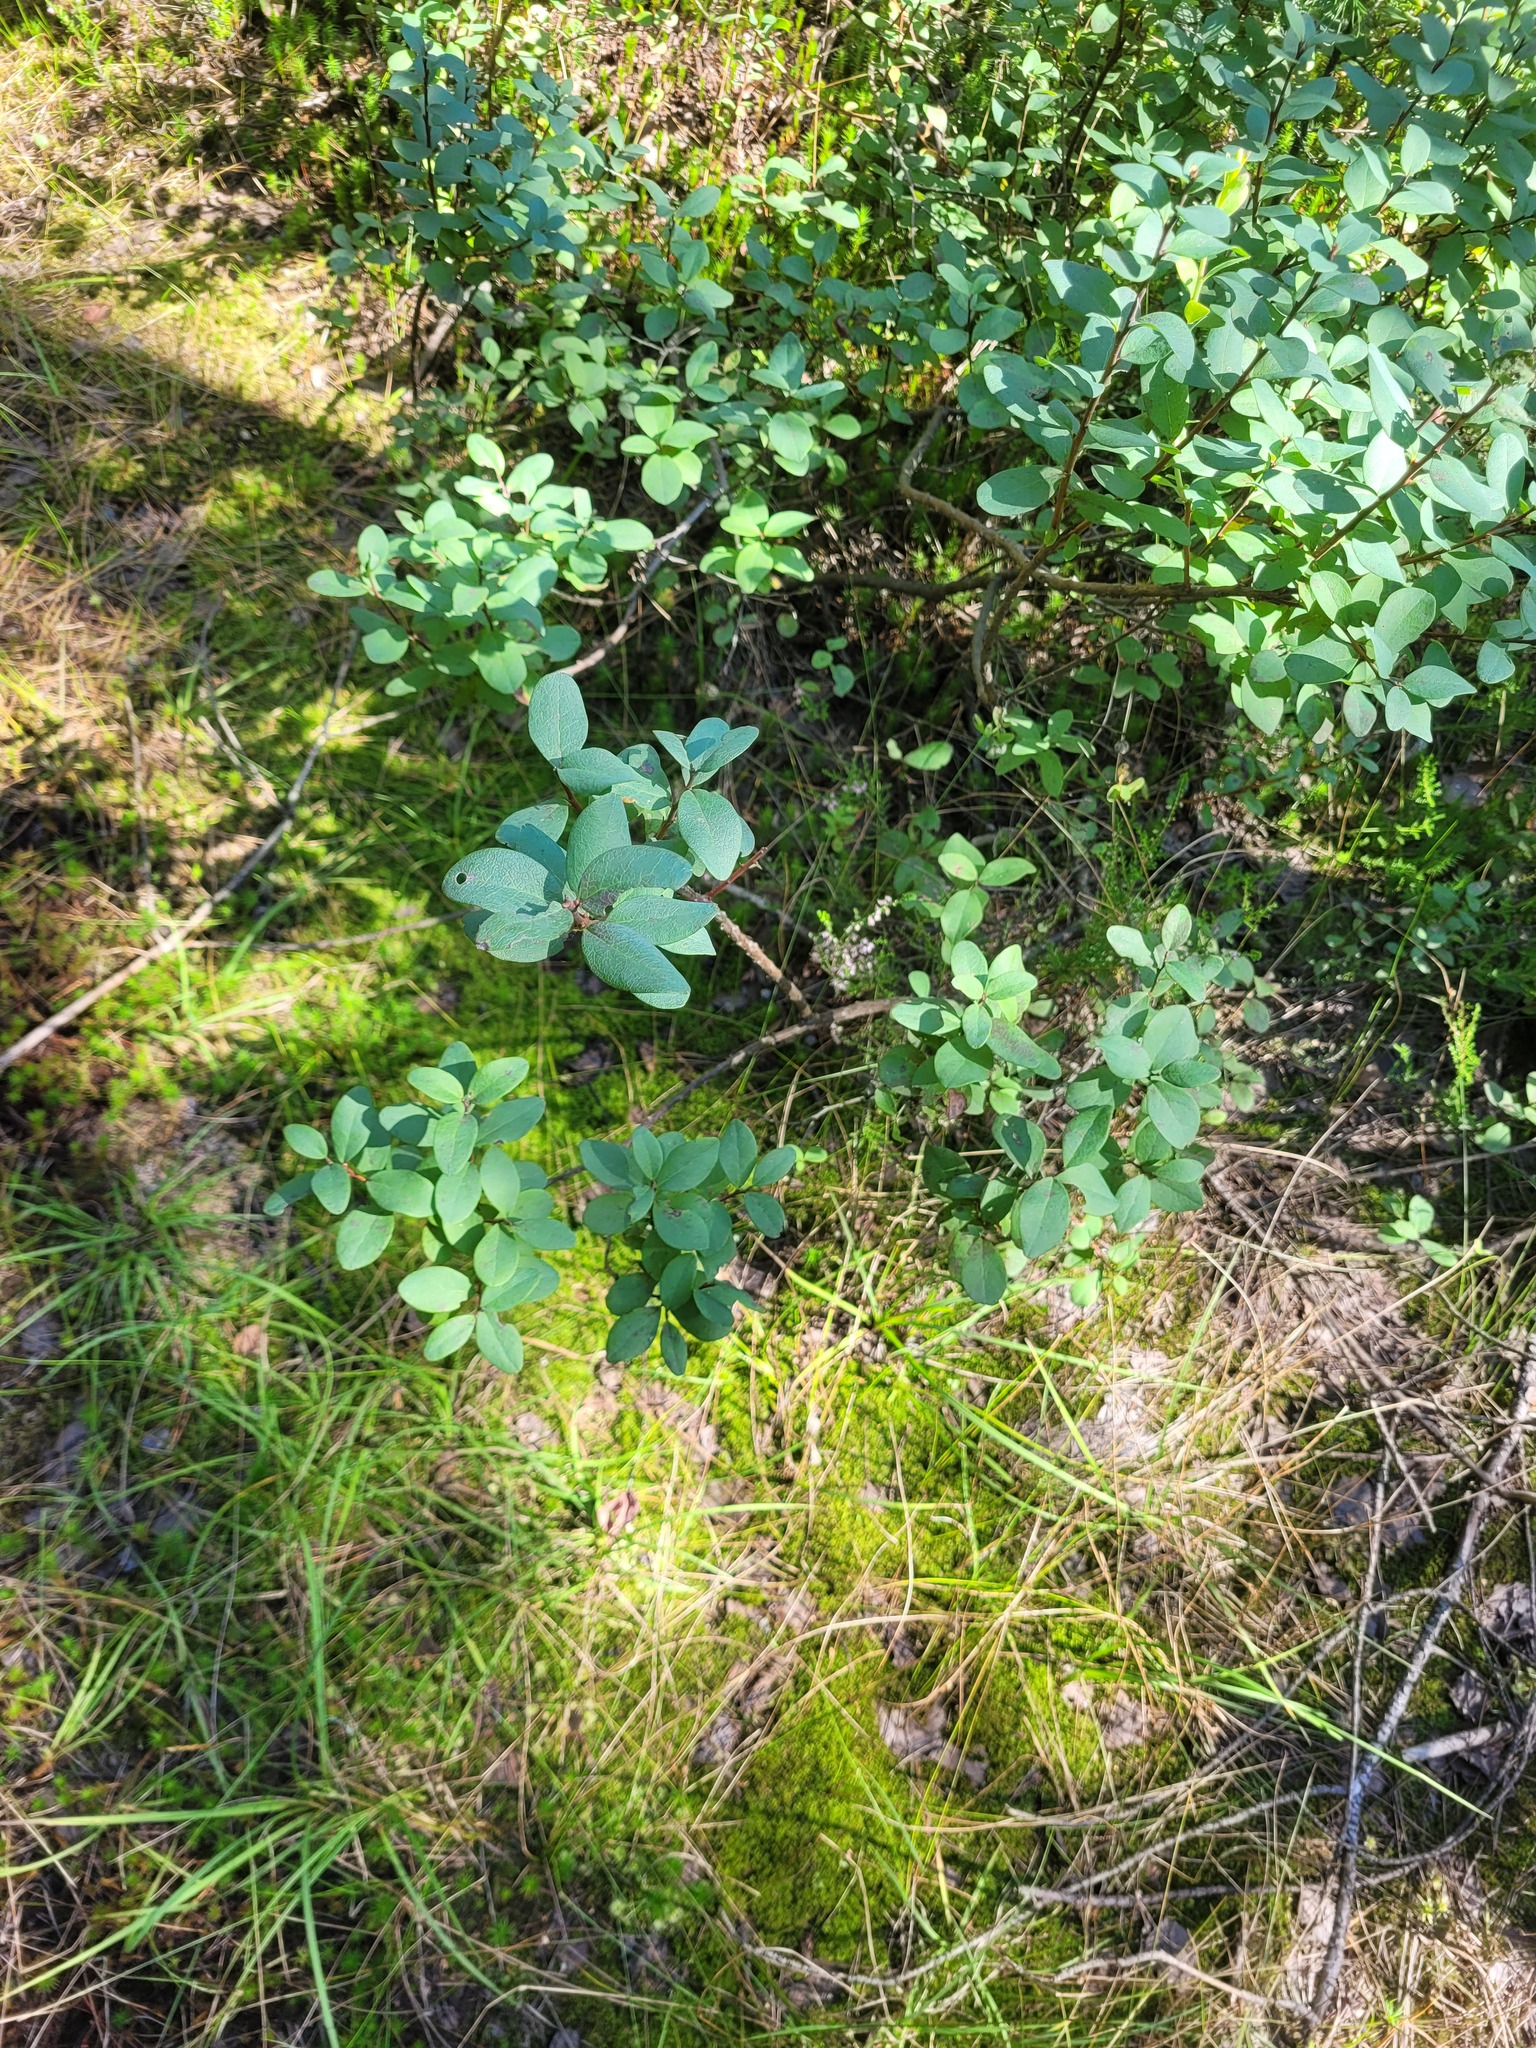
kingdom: Plantae
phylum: Tracheophyta
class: Magnoliopsida
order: Ericales
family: Ericaceae
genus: Vaccinium
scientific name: Vaccinium uliginosum
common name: Bog bilberry
